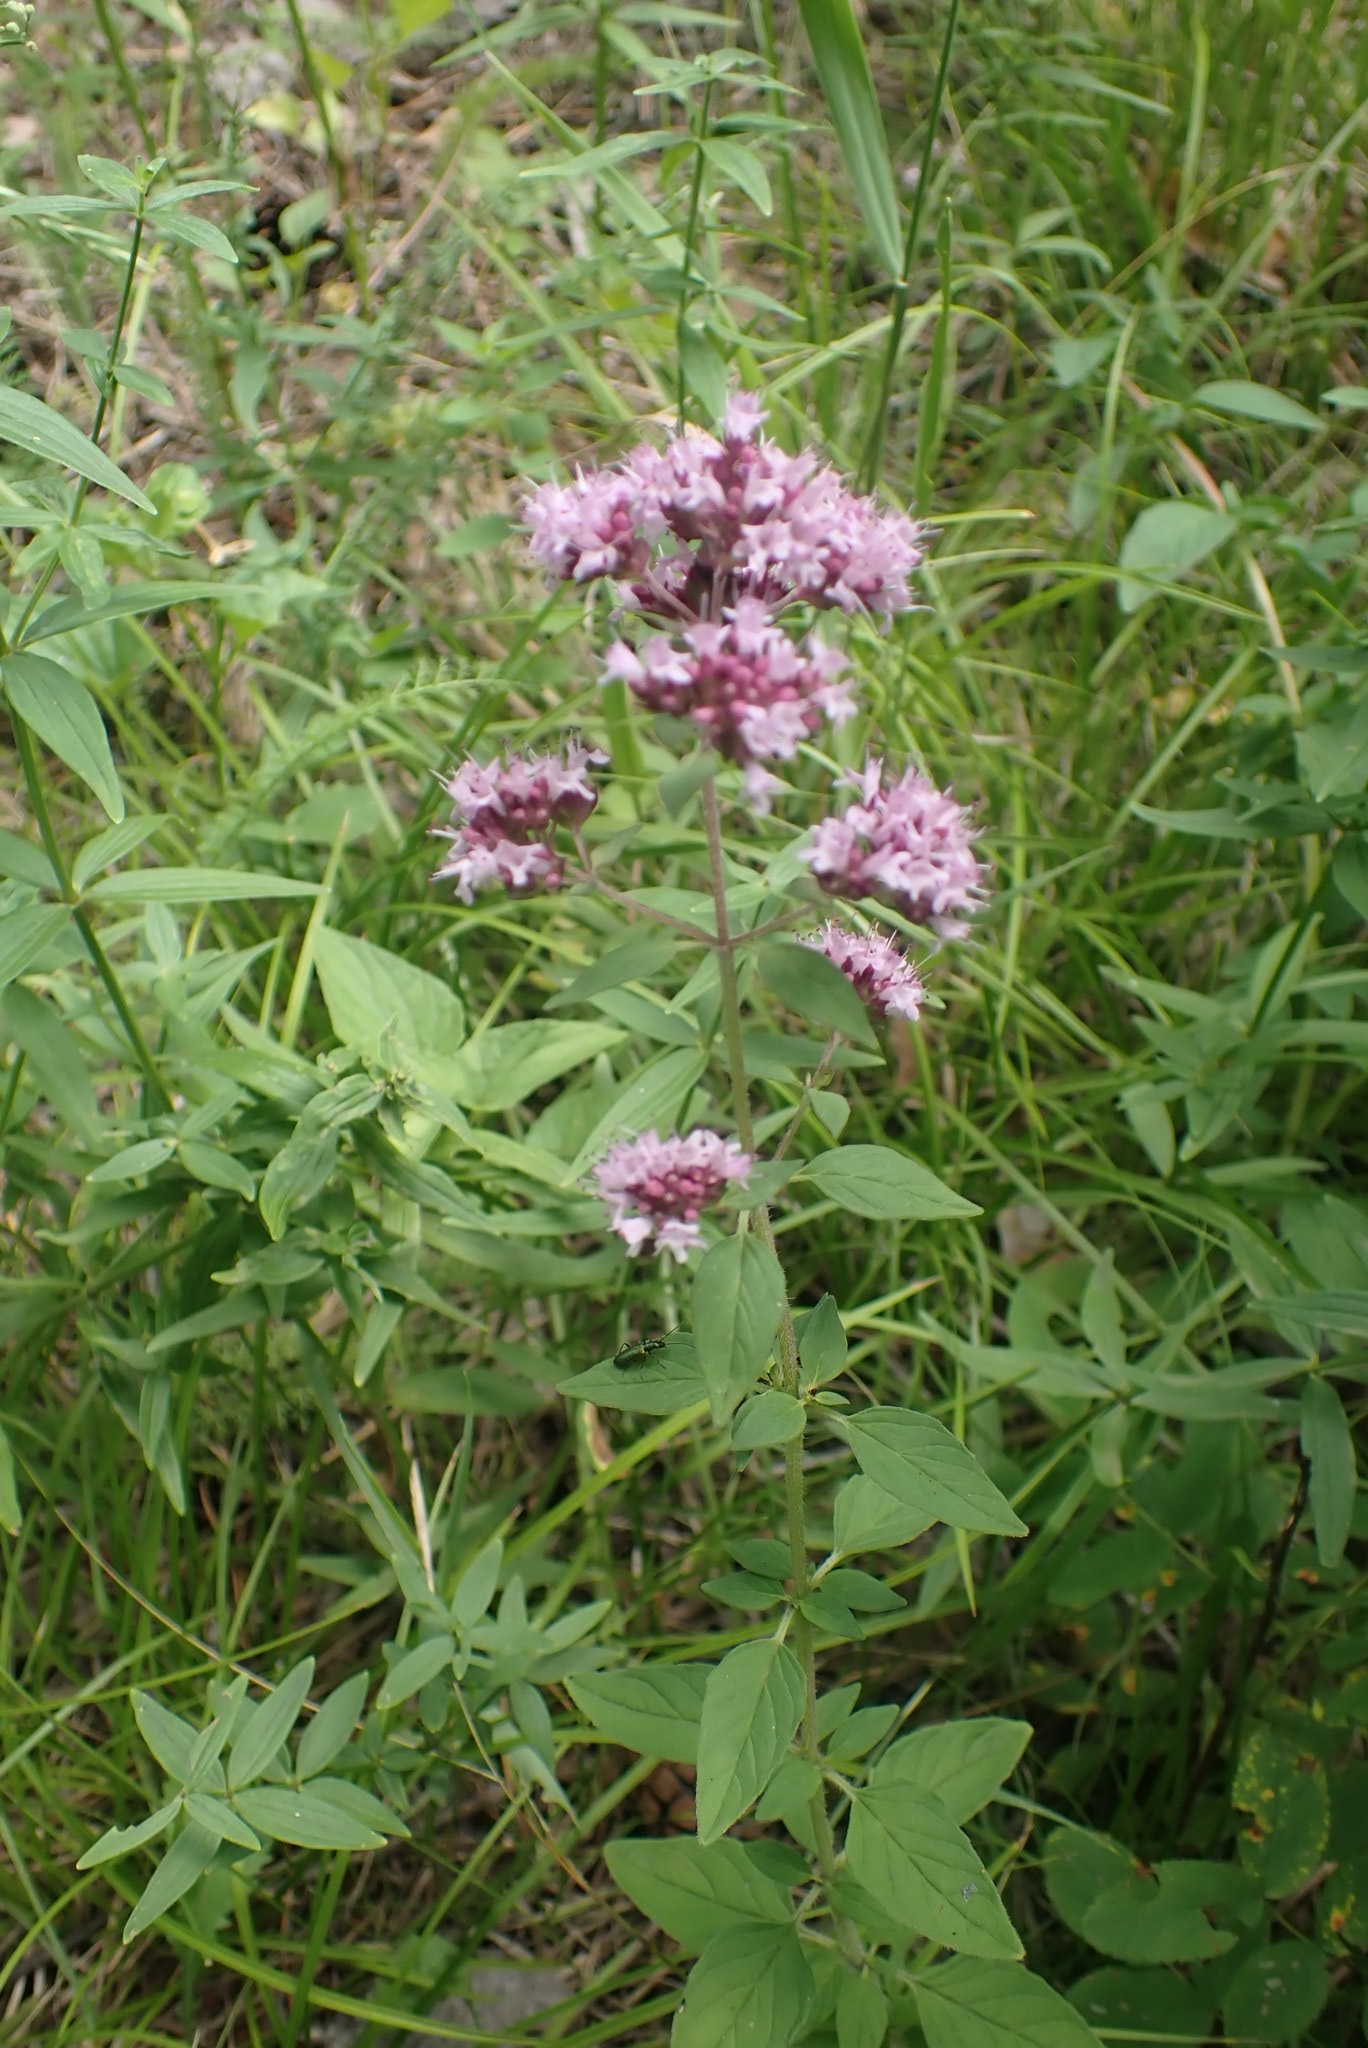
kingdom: Plantae
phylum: Tracheophyta
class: Magnoliopsida
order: Lamiales
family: Lamiaceae
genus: Origanum
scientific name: Origanum vulgare
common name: Wild marjoram
